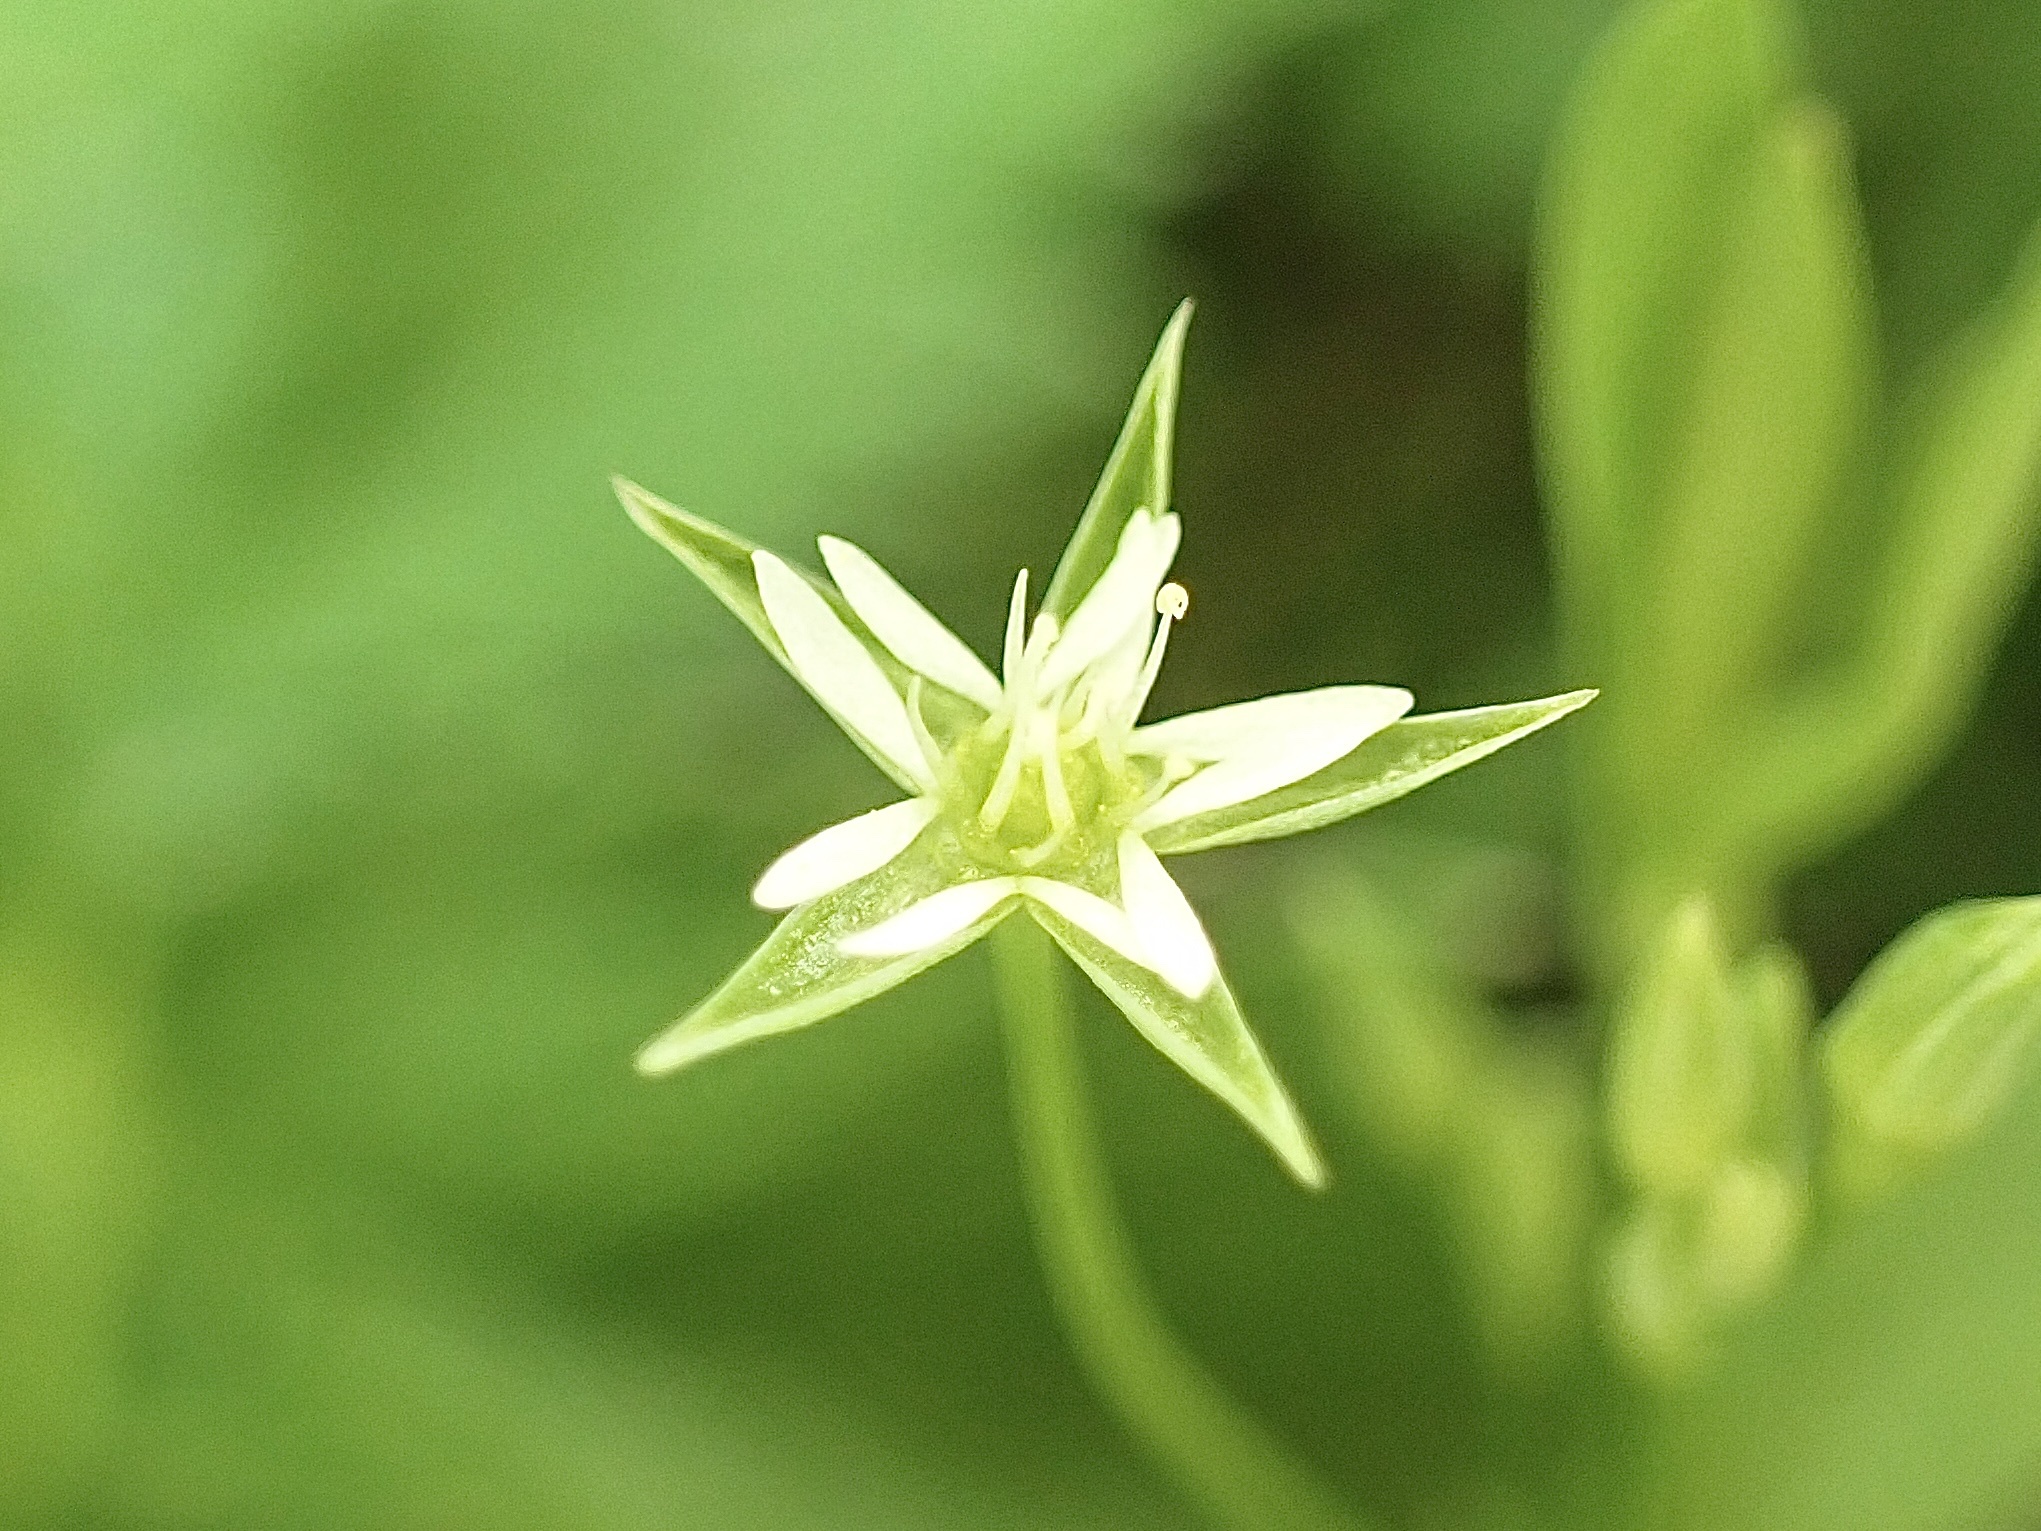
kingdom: Plantae
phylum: Tracheophyta
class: Magnoliopsida
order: Caryophyllales
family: Caryophyllaceae
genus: Stellaria
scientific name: Stellaria alsine
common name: Bog stitchwort
